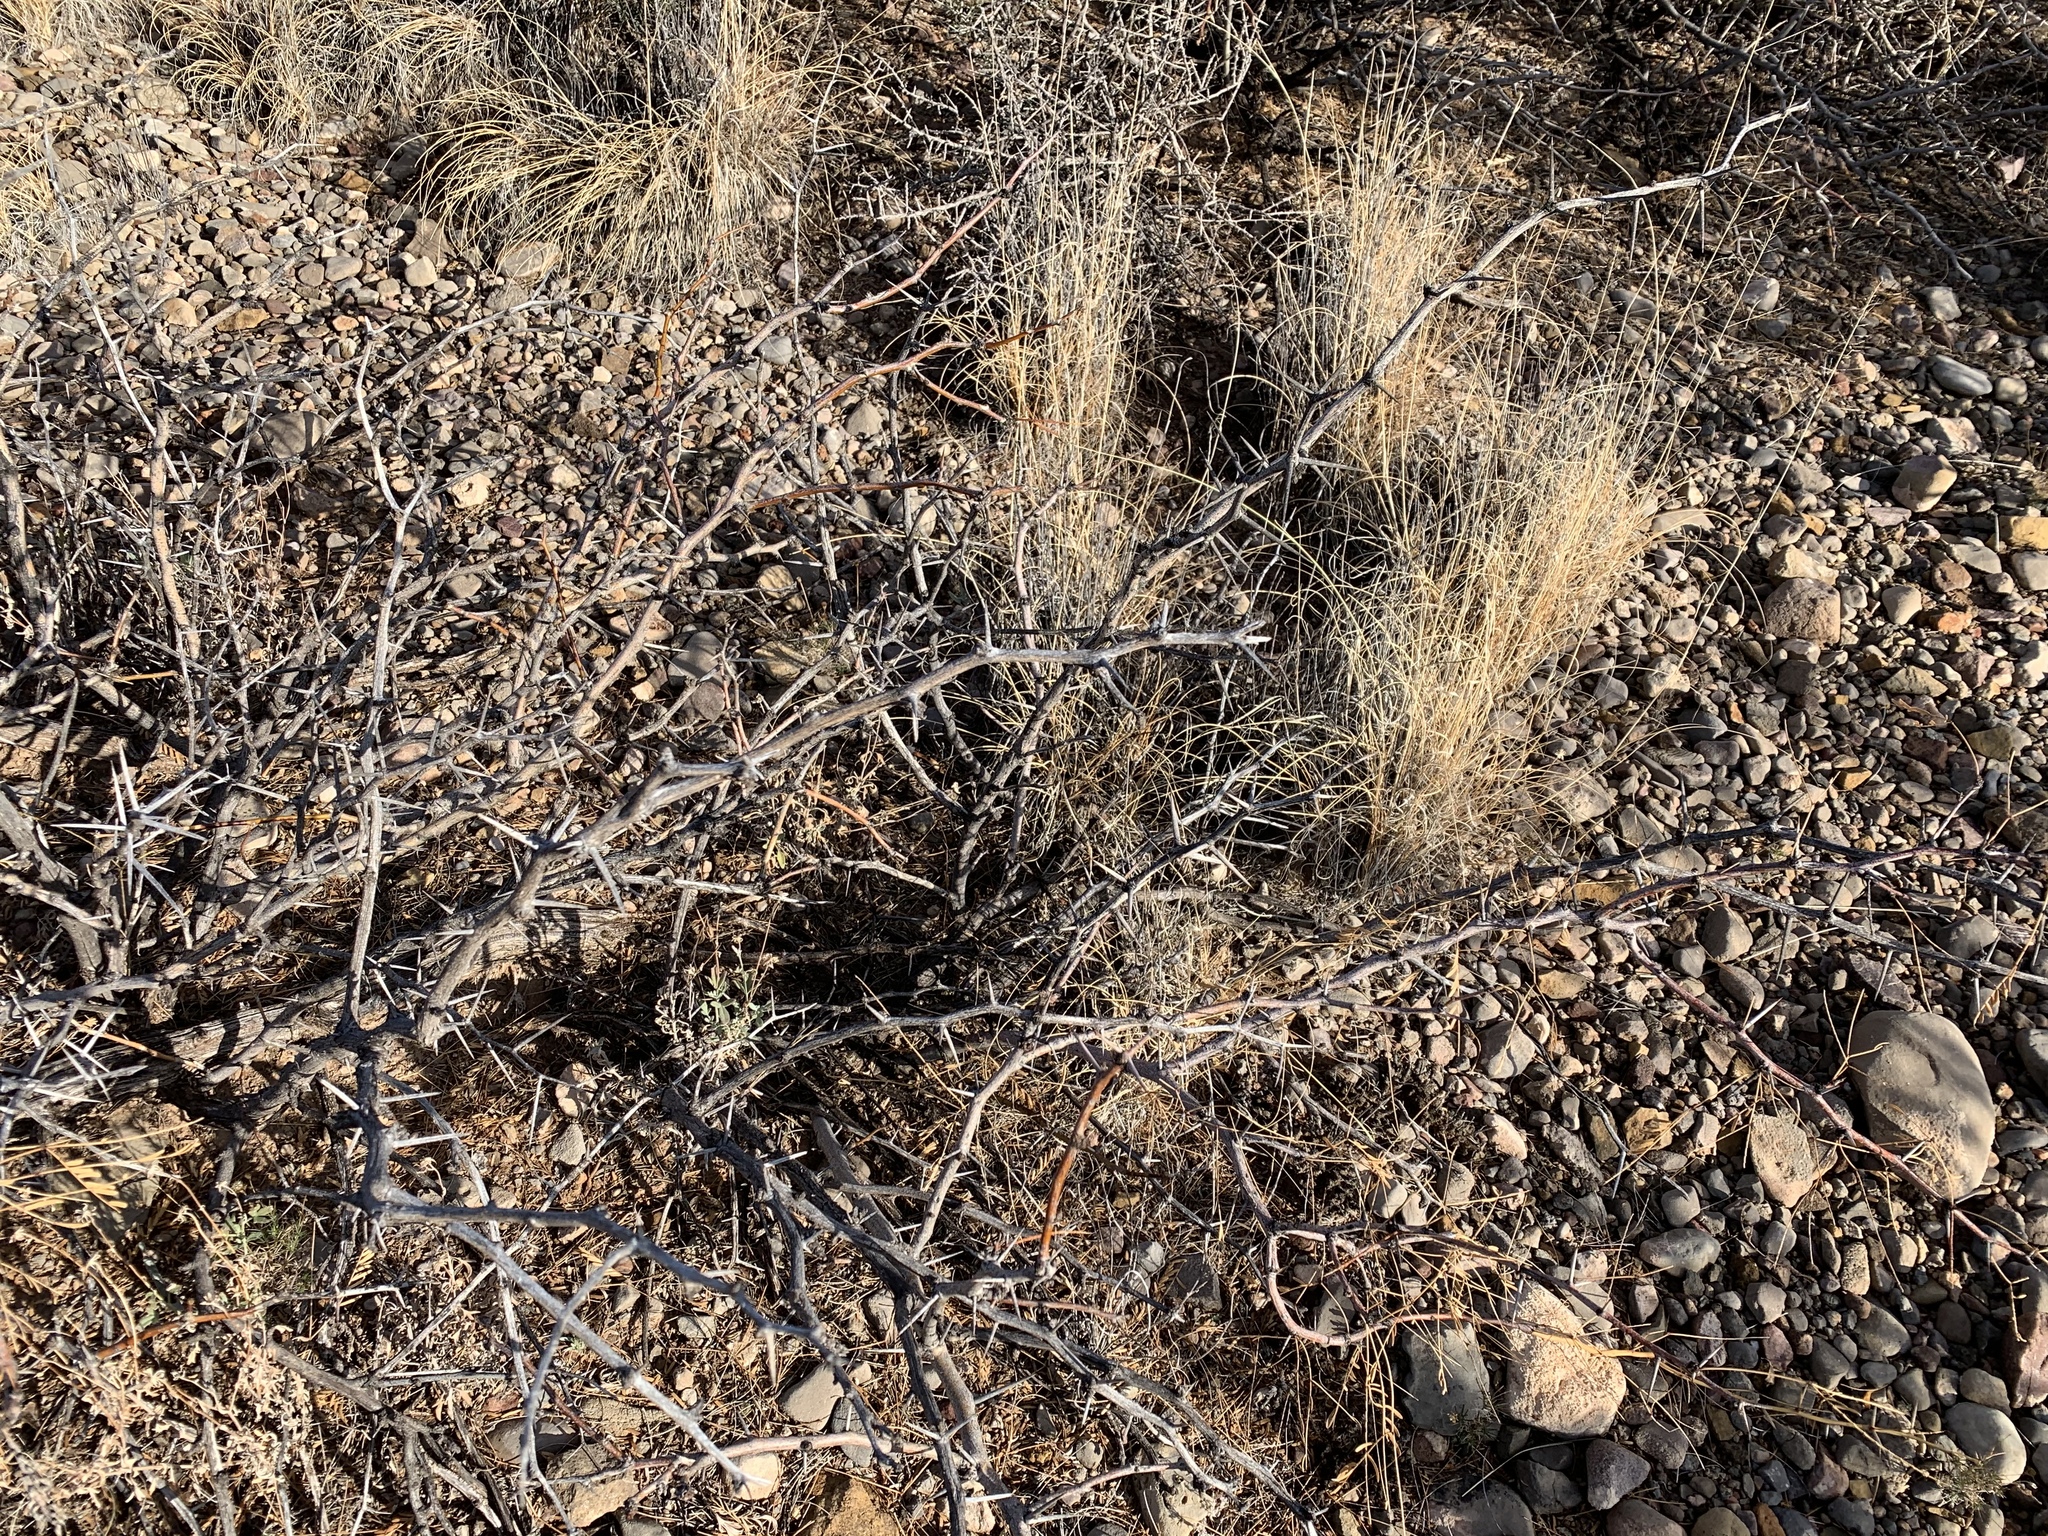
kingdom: Plantae
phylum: Tracheophyta
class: Magnoliopsida
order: Fabales
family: Fabaceae
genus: Prosopis
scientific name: Prosopis glandulosa
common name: Honey mesquite
